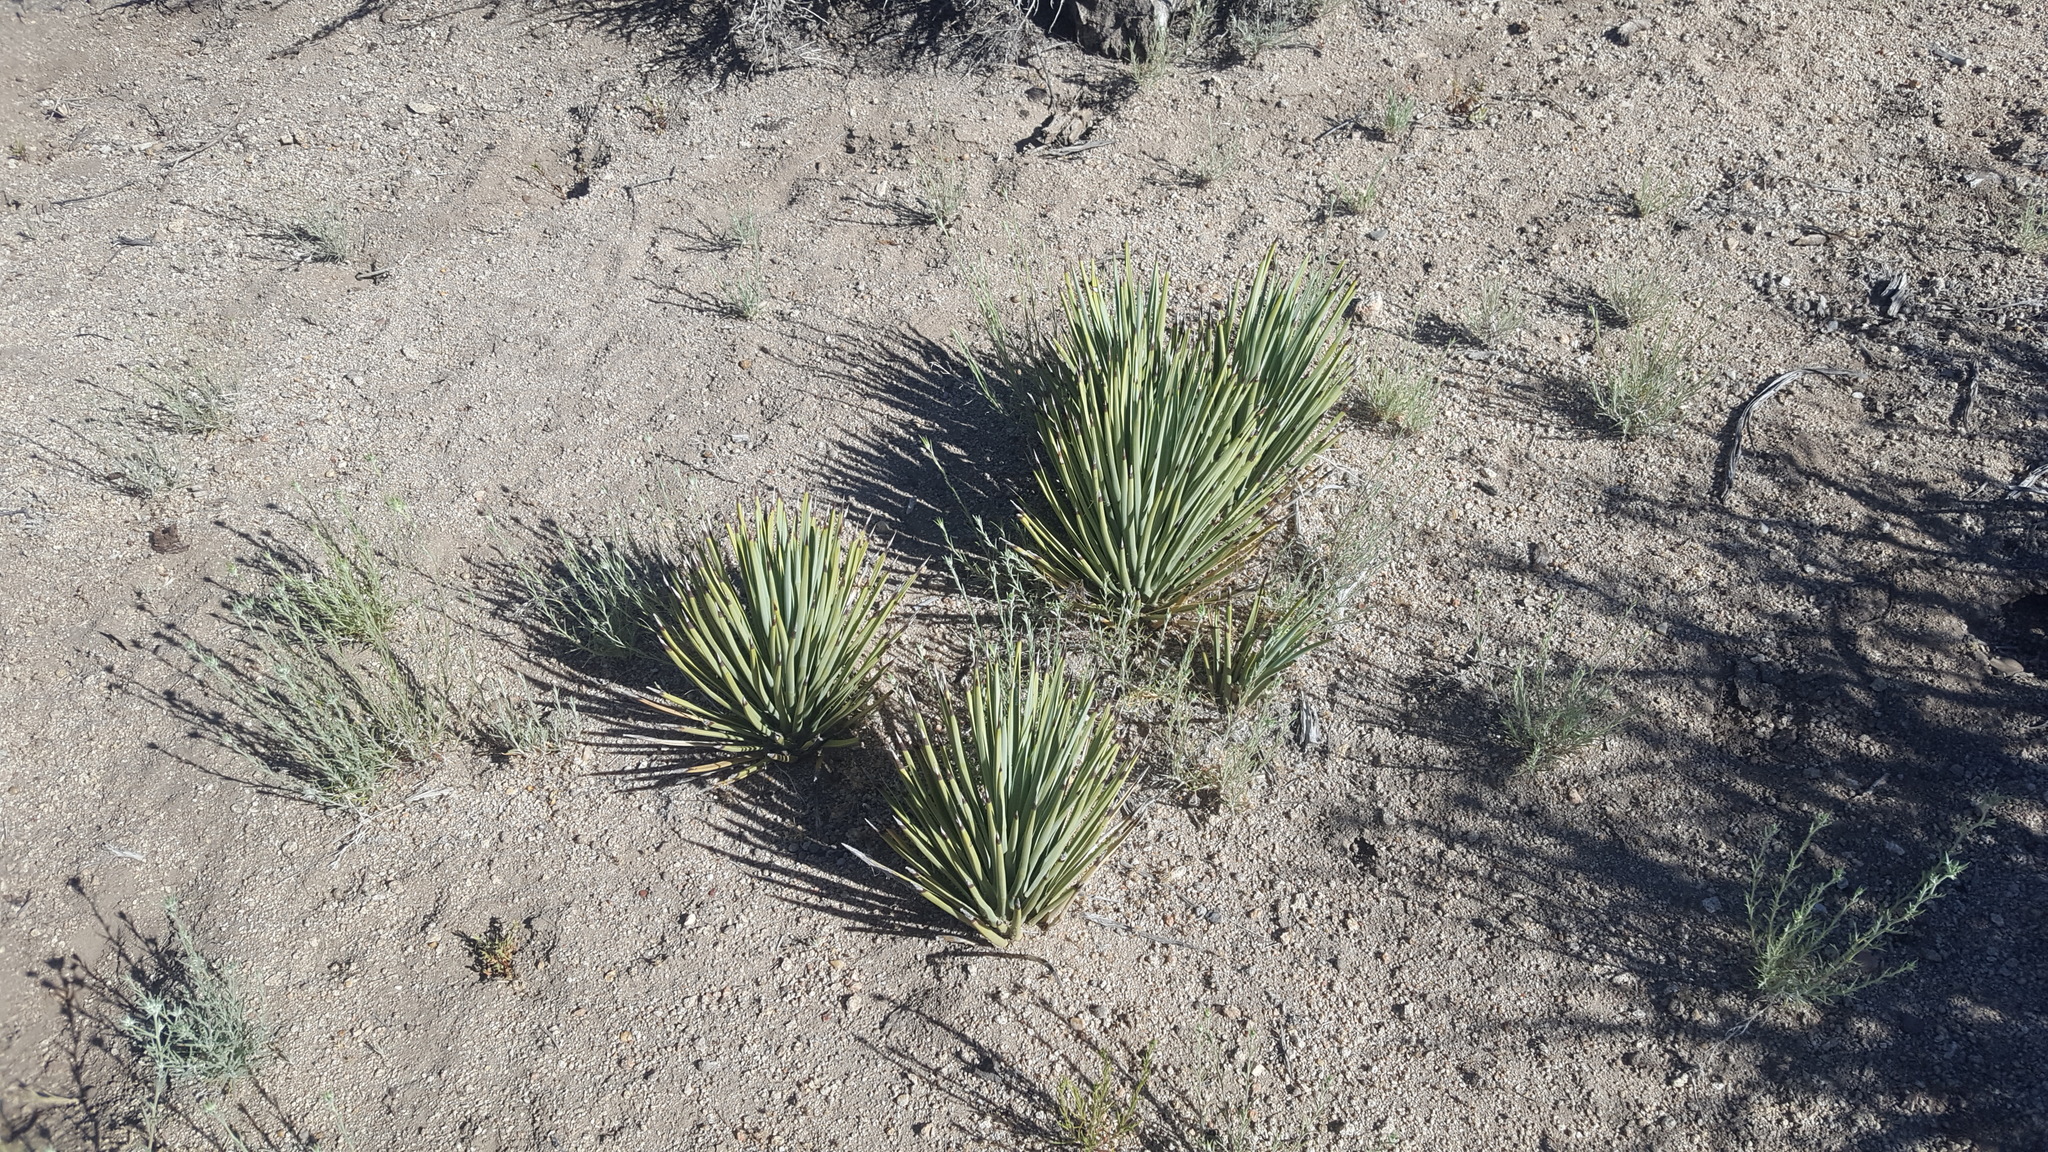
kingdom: Plantae
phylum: Tracheophyta
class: Liliopsida
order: Asparagales
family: Asparagaceae
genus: Yucca
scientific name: Yucca brevifolia
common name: Joshua tree
